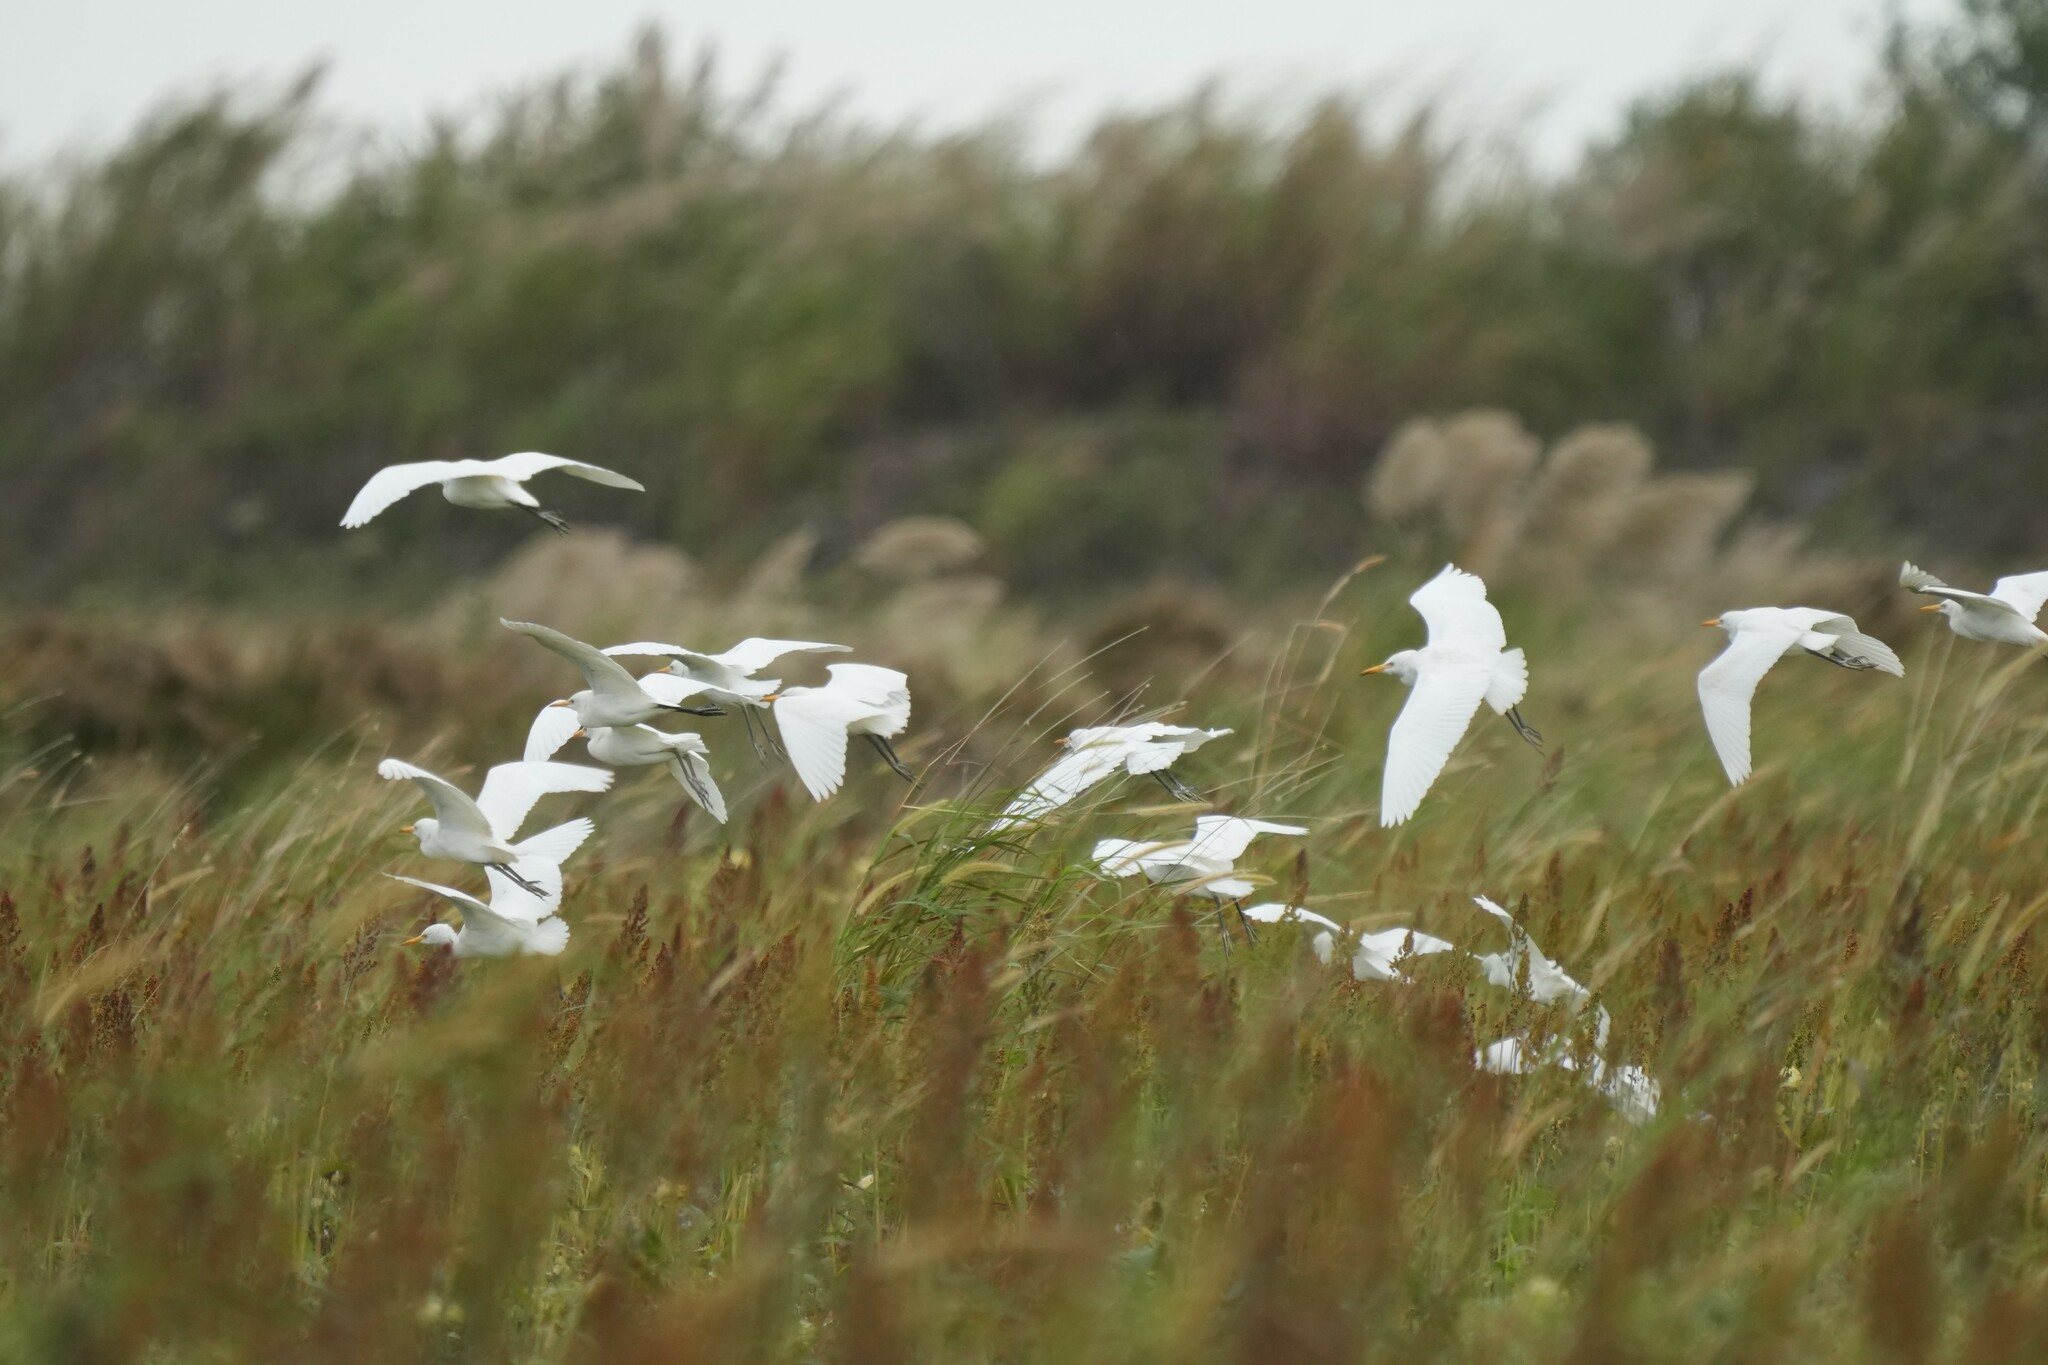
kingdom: Animalia
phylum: Chordata
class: Aves
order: Pelecaniformes
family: Ardeidae
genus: Bubulcus
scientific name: Bubulcus ibis
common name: Cattle egret
